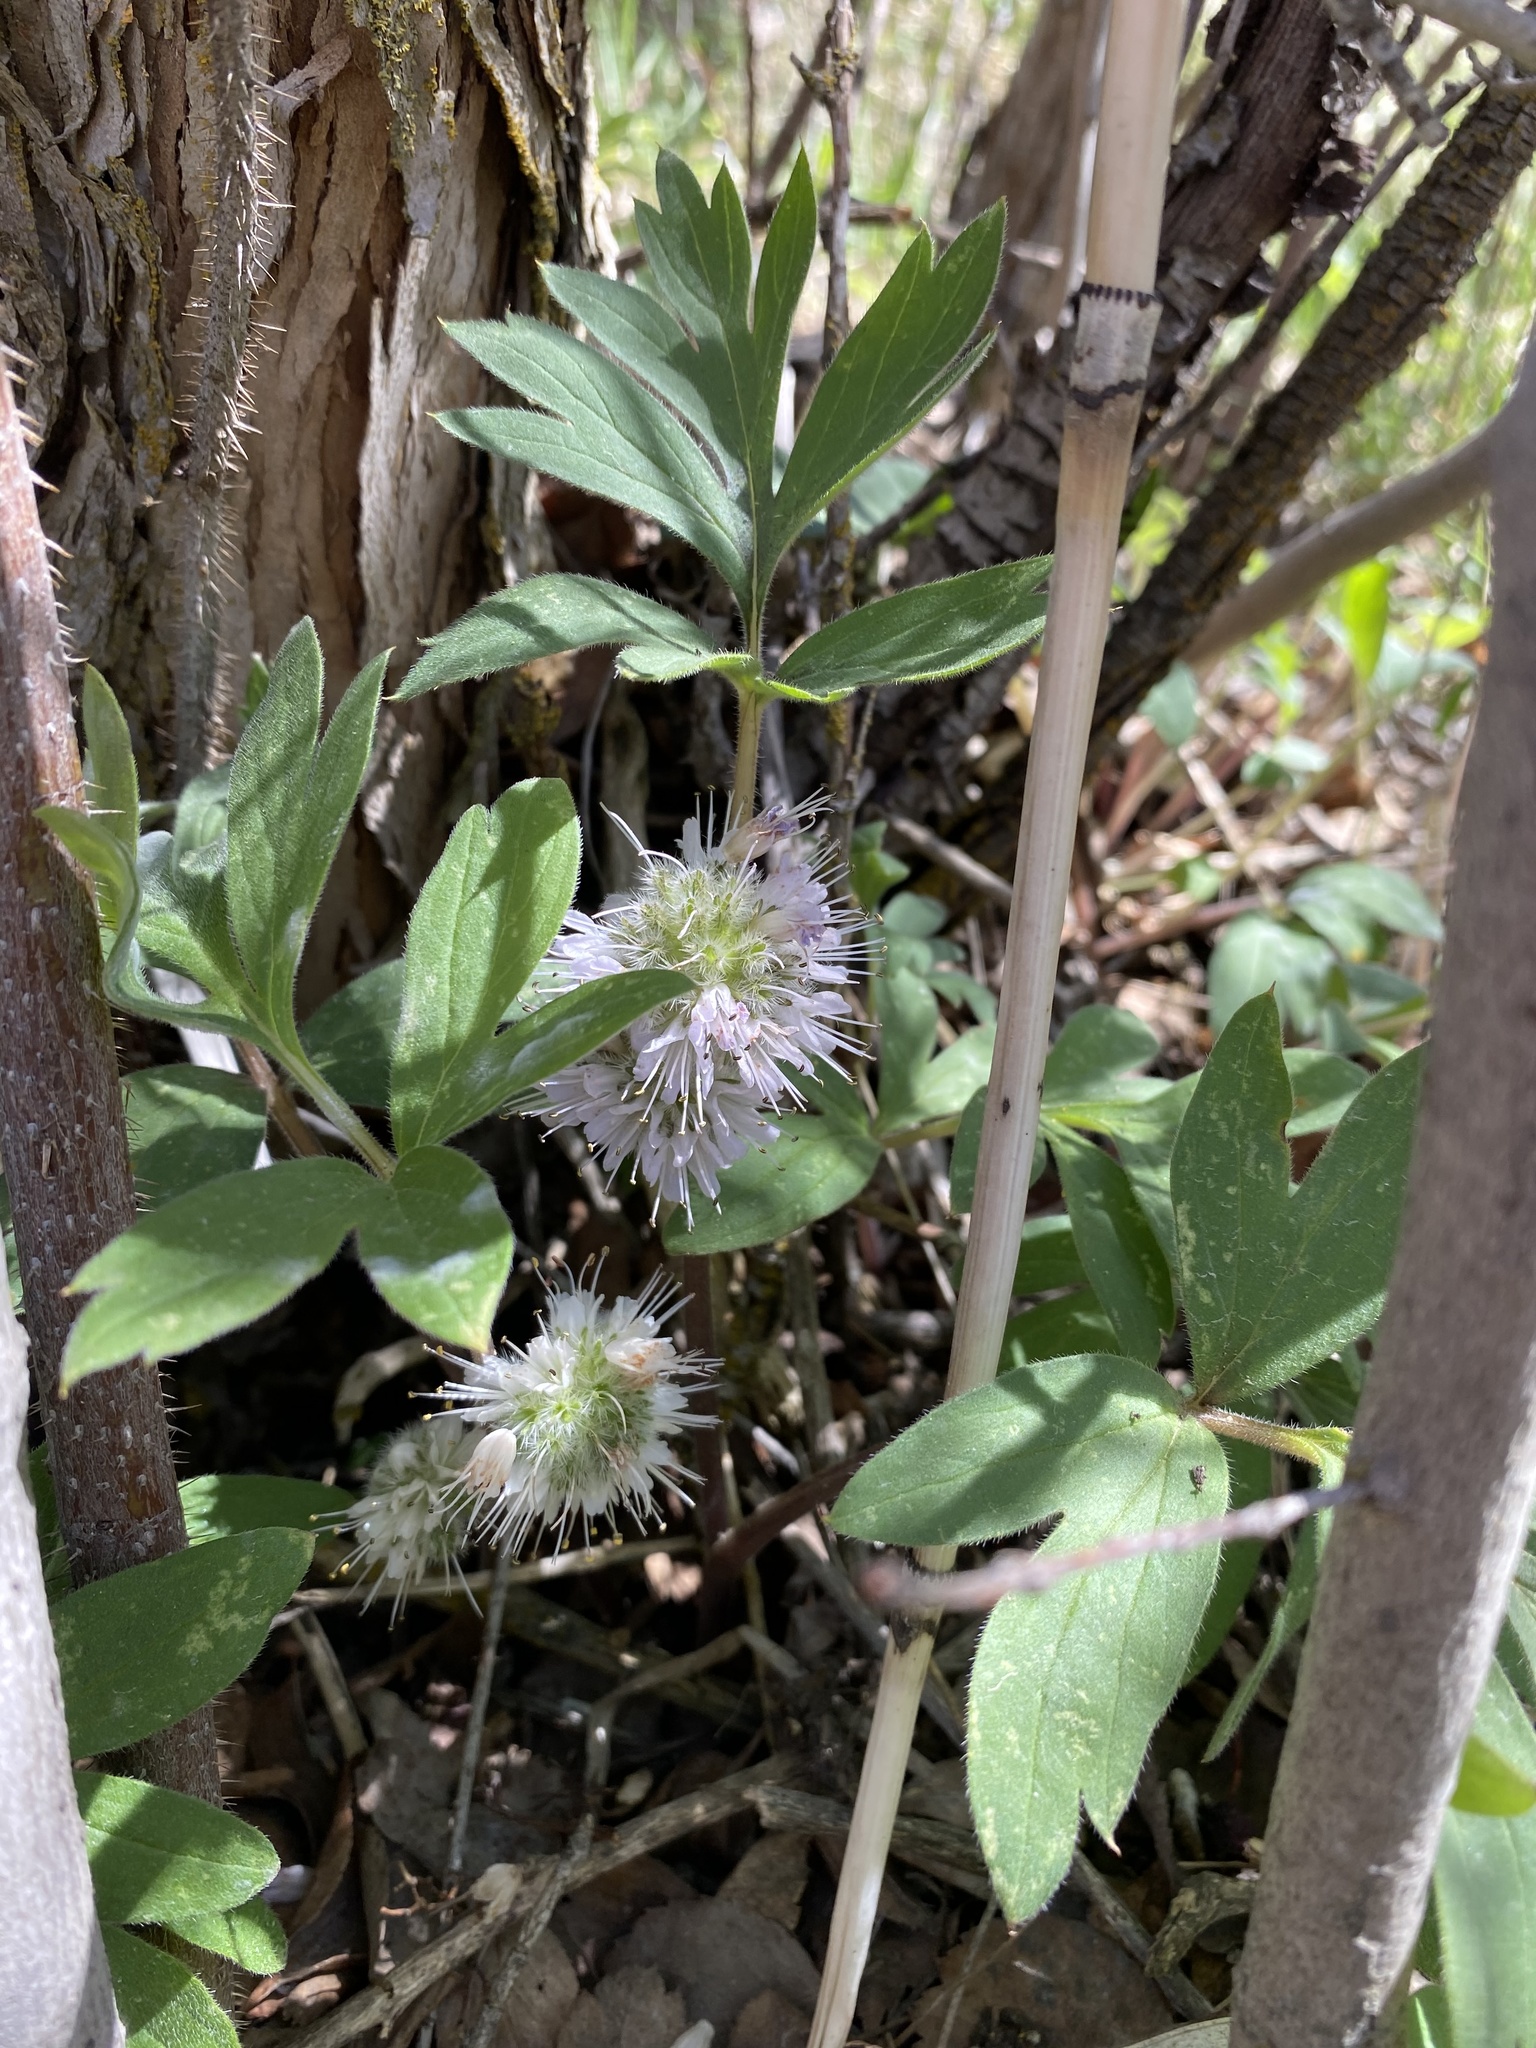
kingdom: Plantae
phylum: Tracheophyta
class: Magnoliopsida
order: Boraginales
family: Hydrophyllaceae
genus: Hydrophyllum
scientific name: Hydrophyllum capitatum
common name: Woollen-breeches
